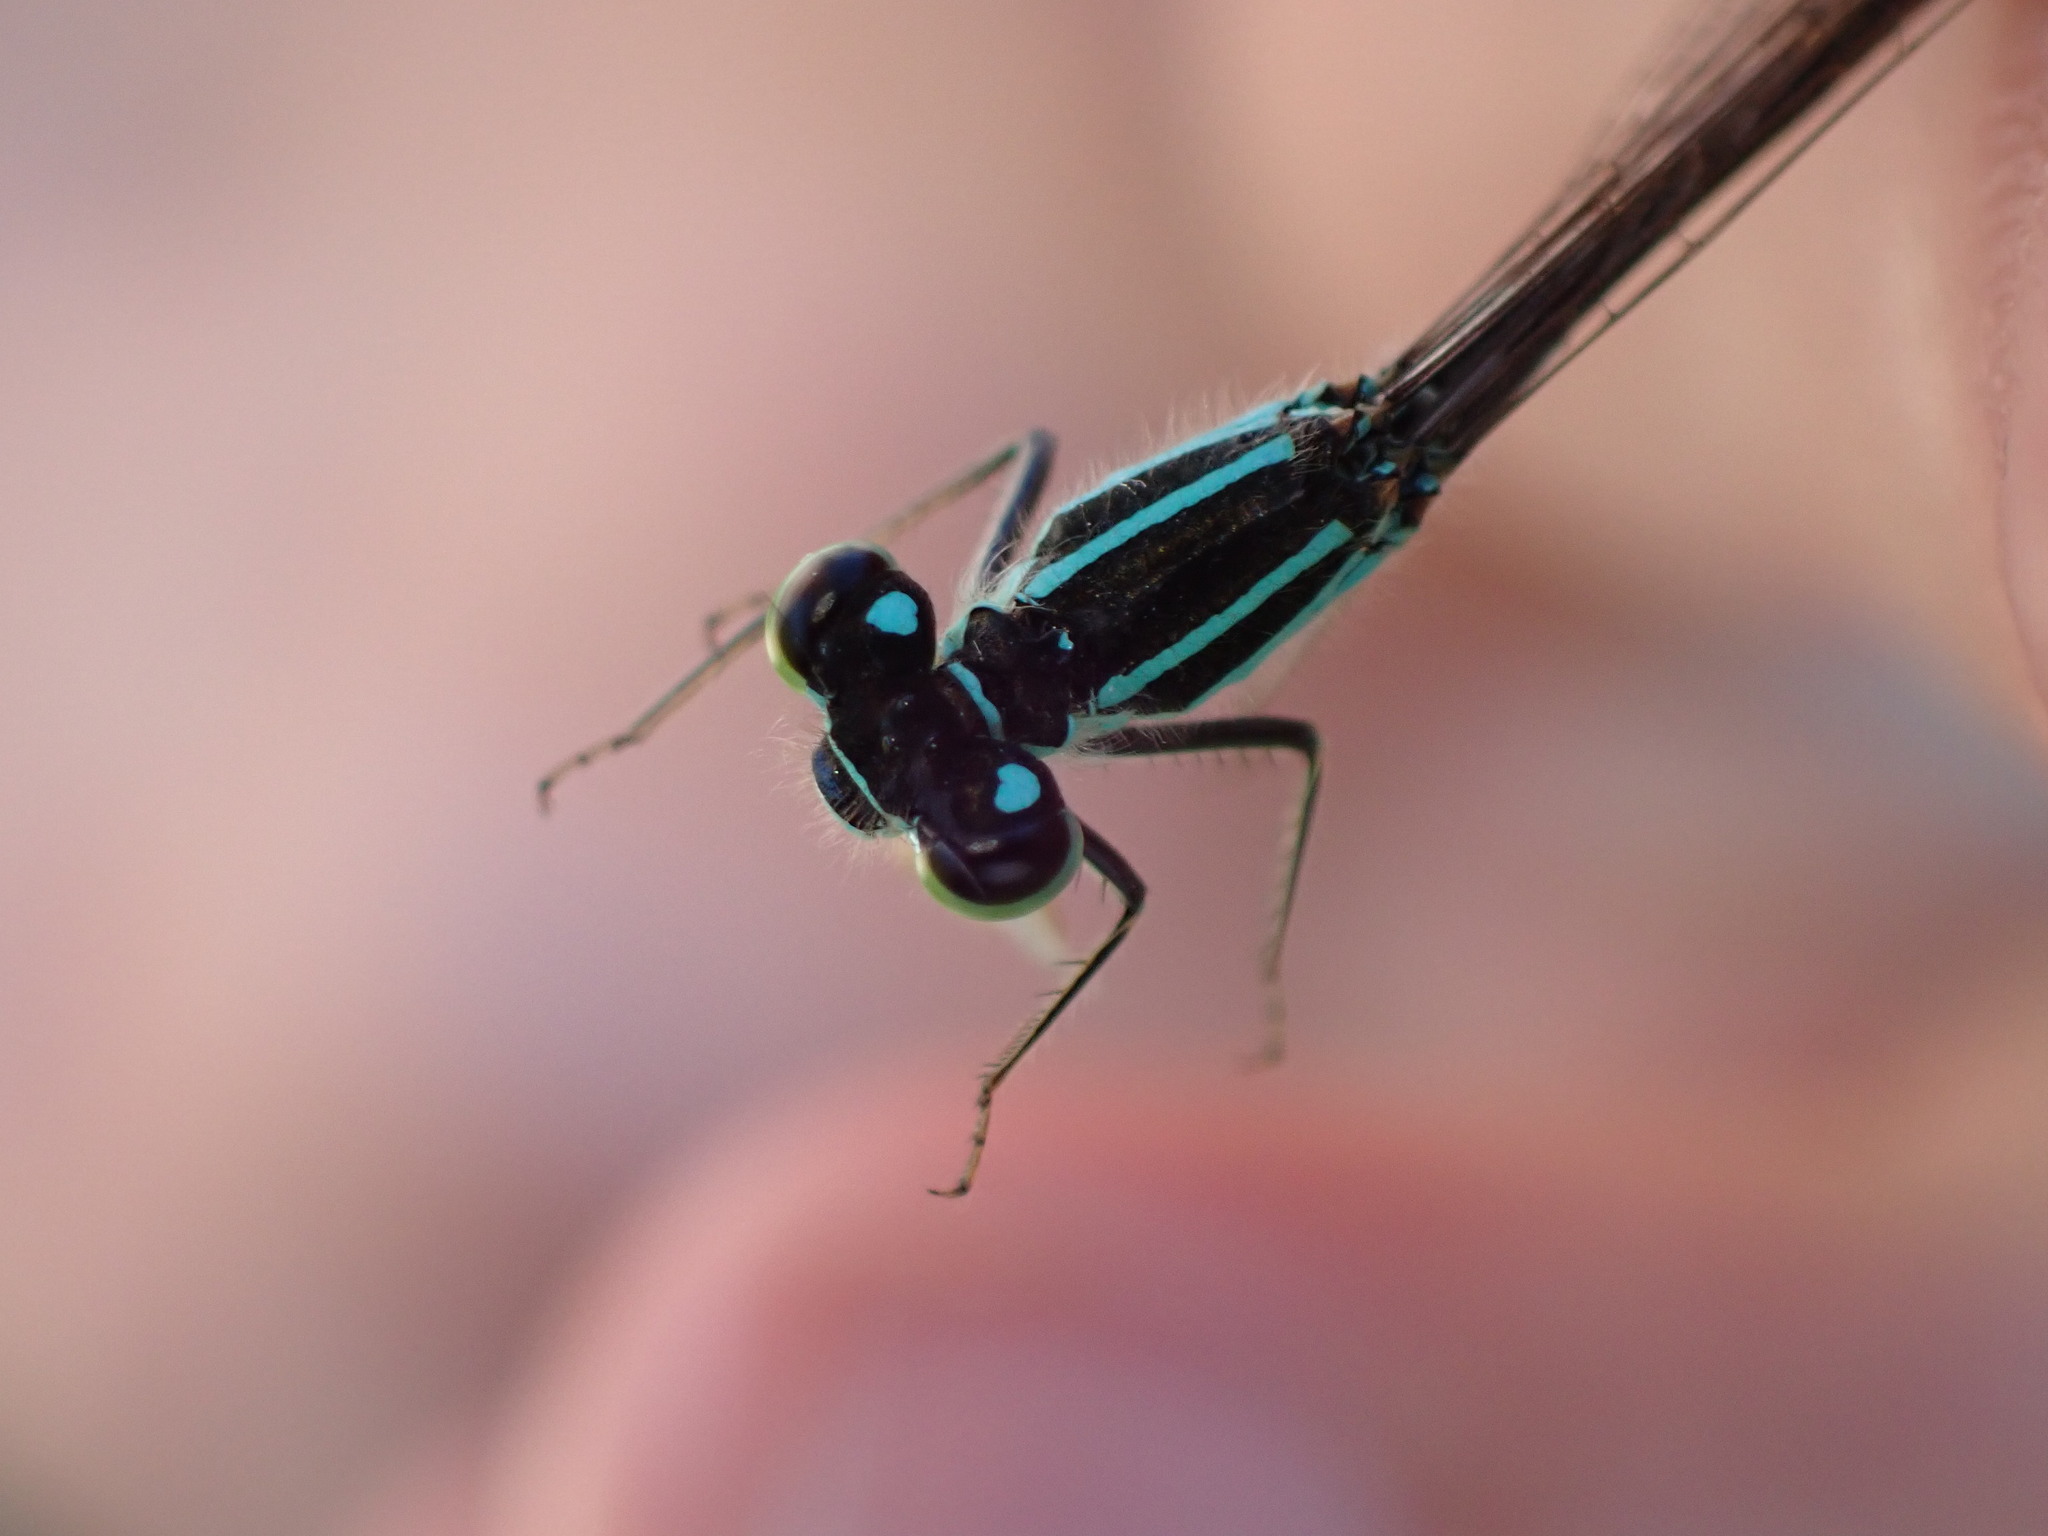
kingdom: Animalia
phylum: Arthropoda
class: Insecta
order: Odonata
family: Coenagrionidae
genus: Ischnura
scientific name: Ischnura elegans
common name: Blue-tailed damselfly
